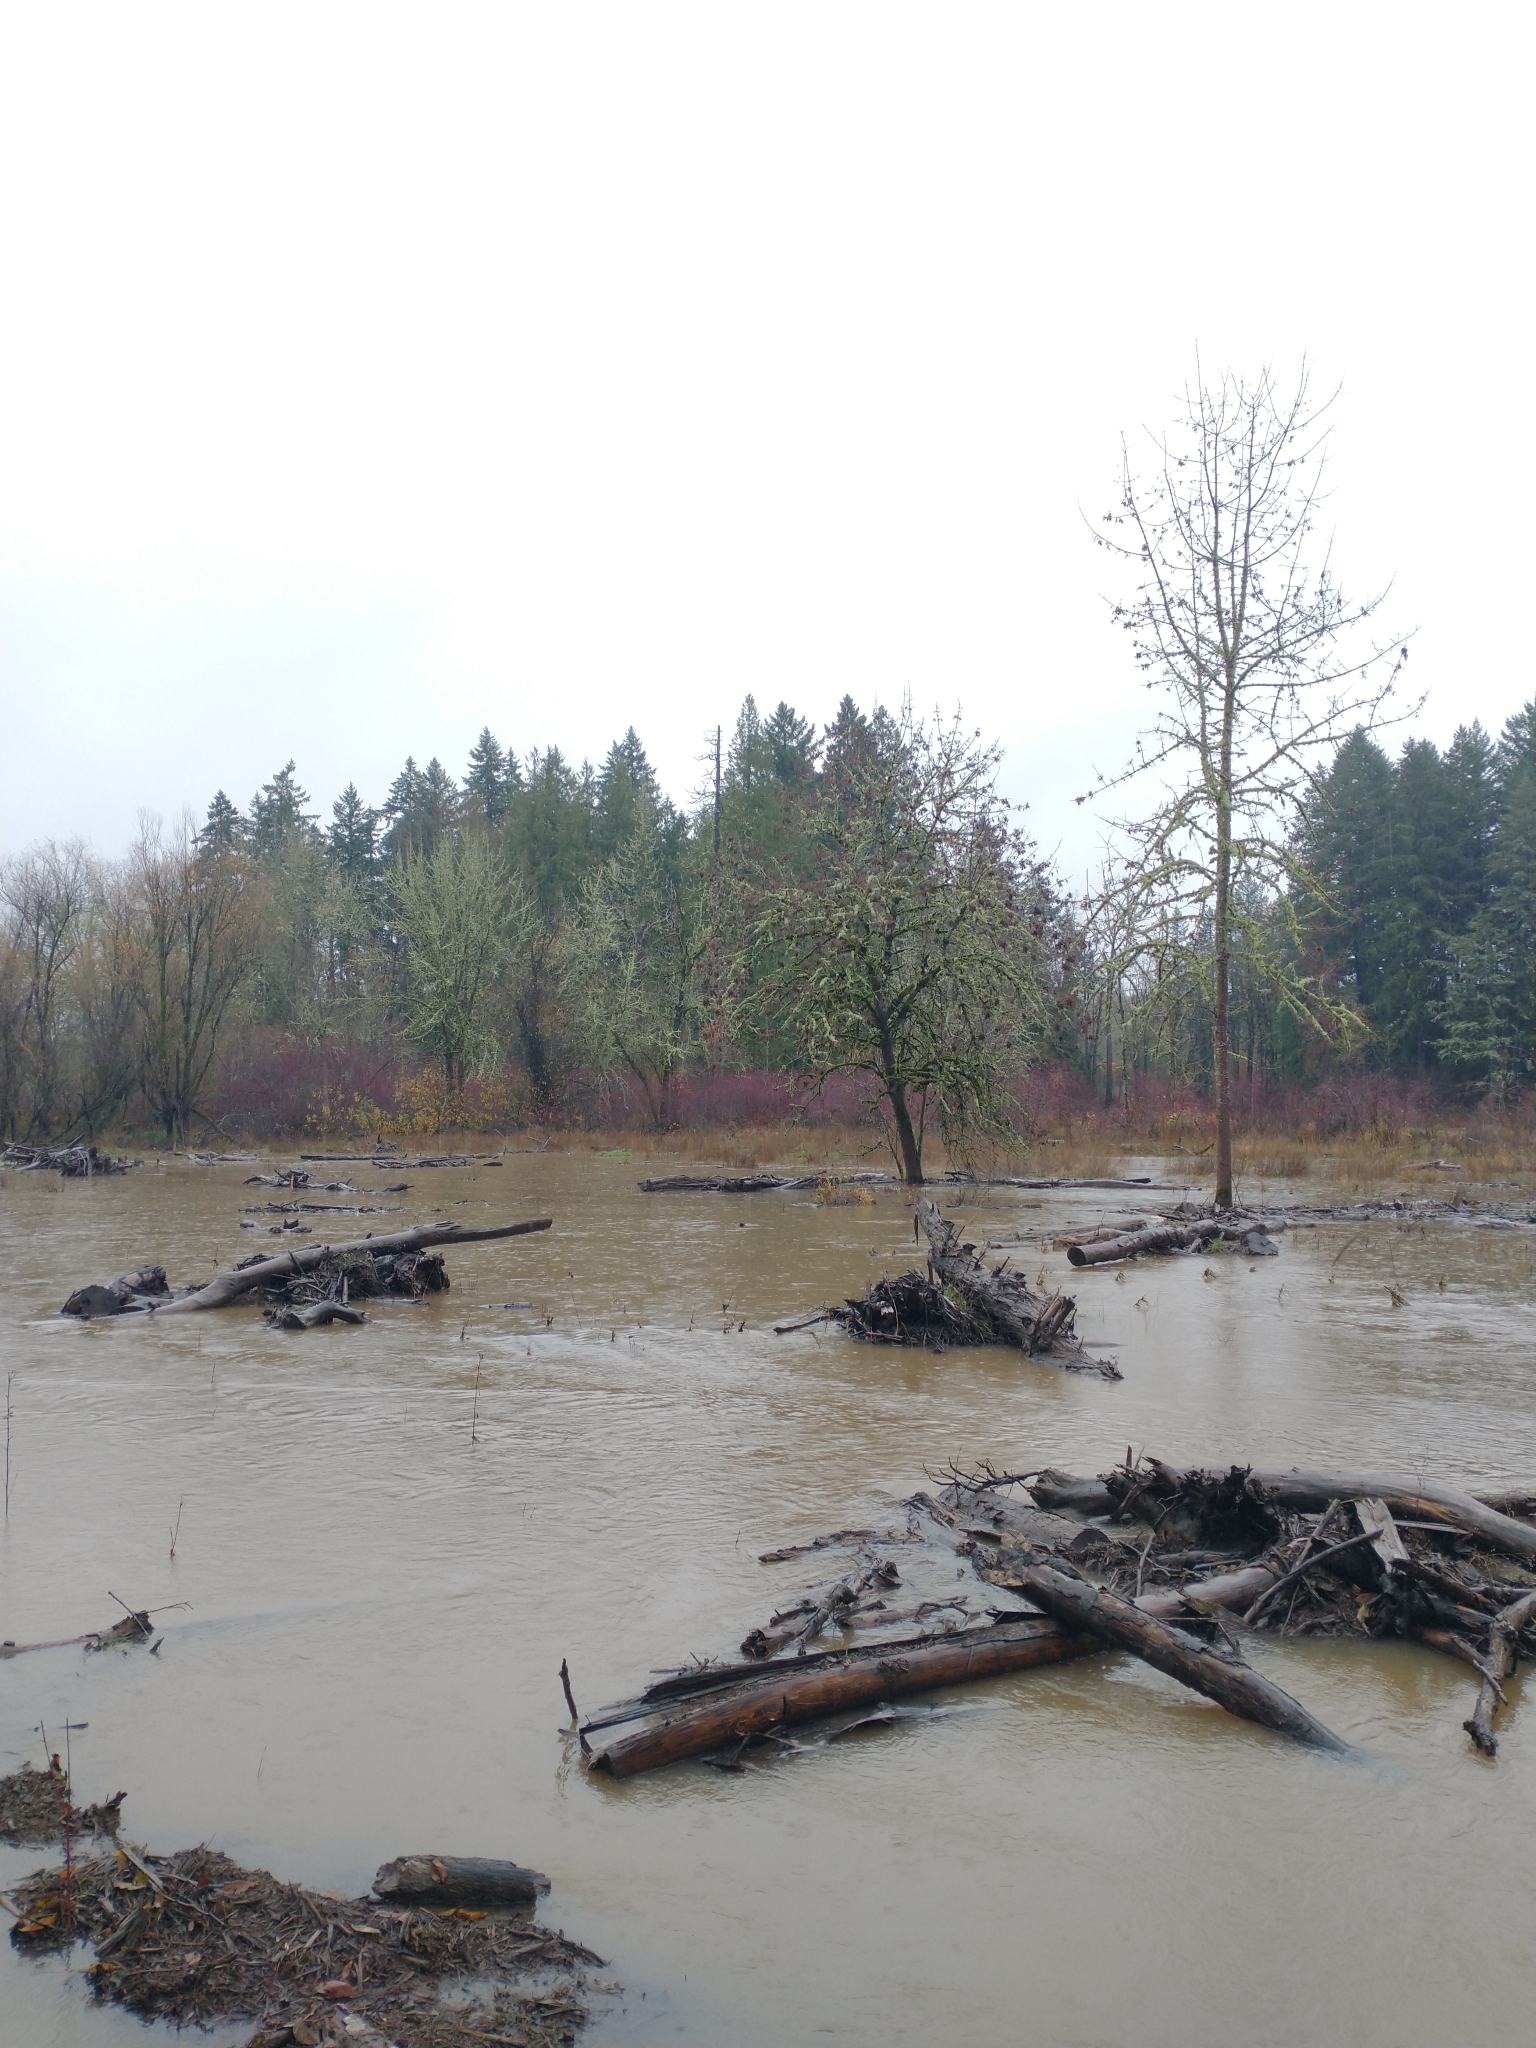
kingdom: Plantae
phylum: Tracheophyta
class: Magnoliopsida
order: Lamiales
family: Oleaceae
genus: Fraxinus
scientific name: Fraxinus latifolia
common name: Oregon ash
